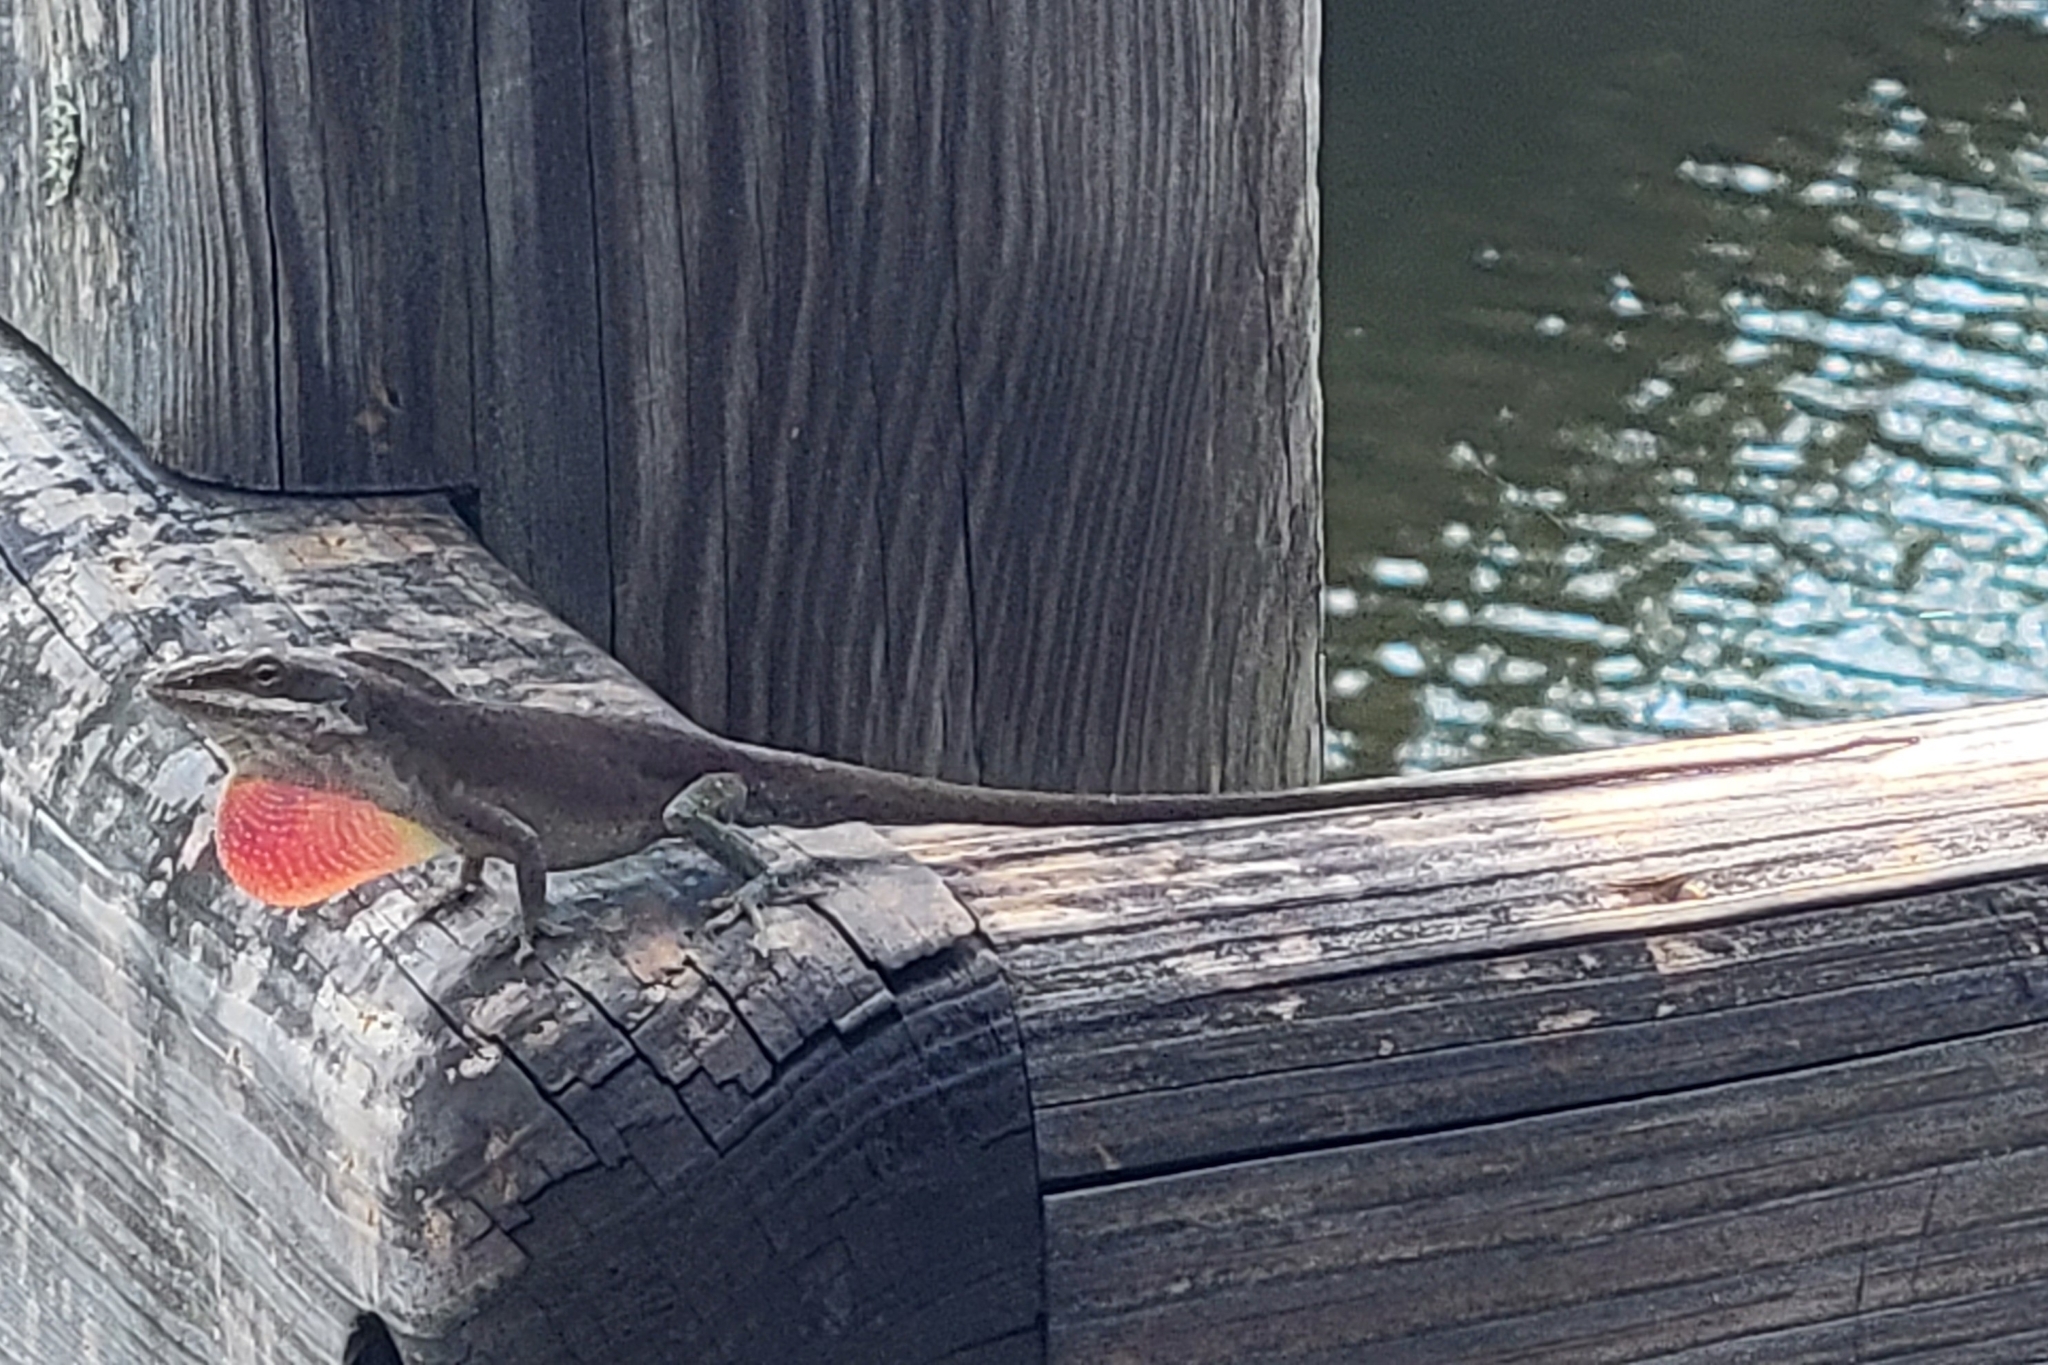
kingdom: Animalia
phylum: Chordata
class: Squamata
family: Dactyloidae
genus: Anolis
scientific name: Anolis carolinensis
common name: Green anole
